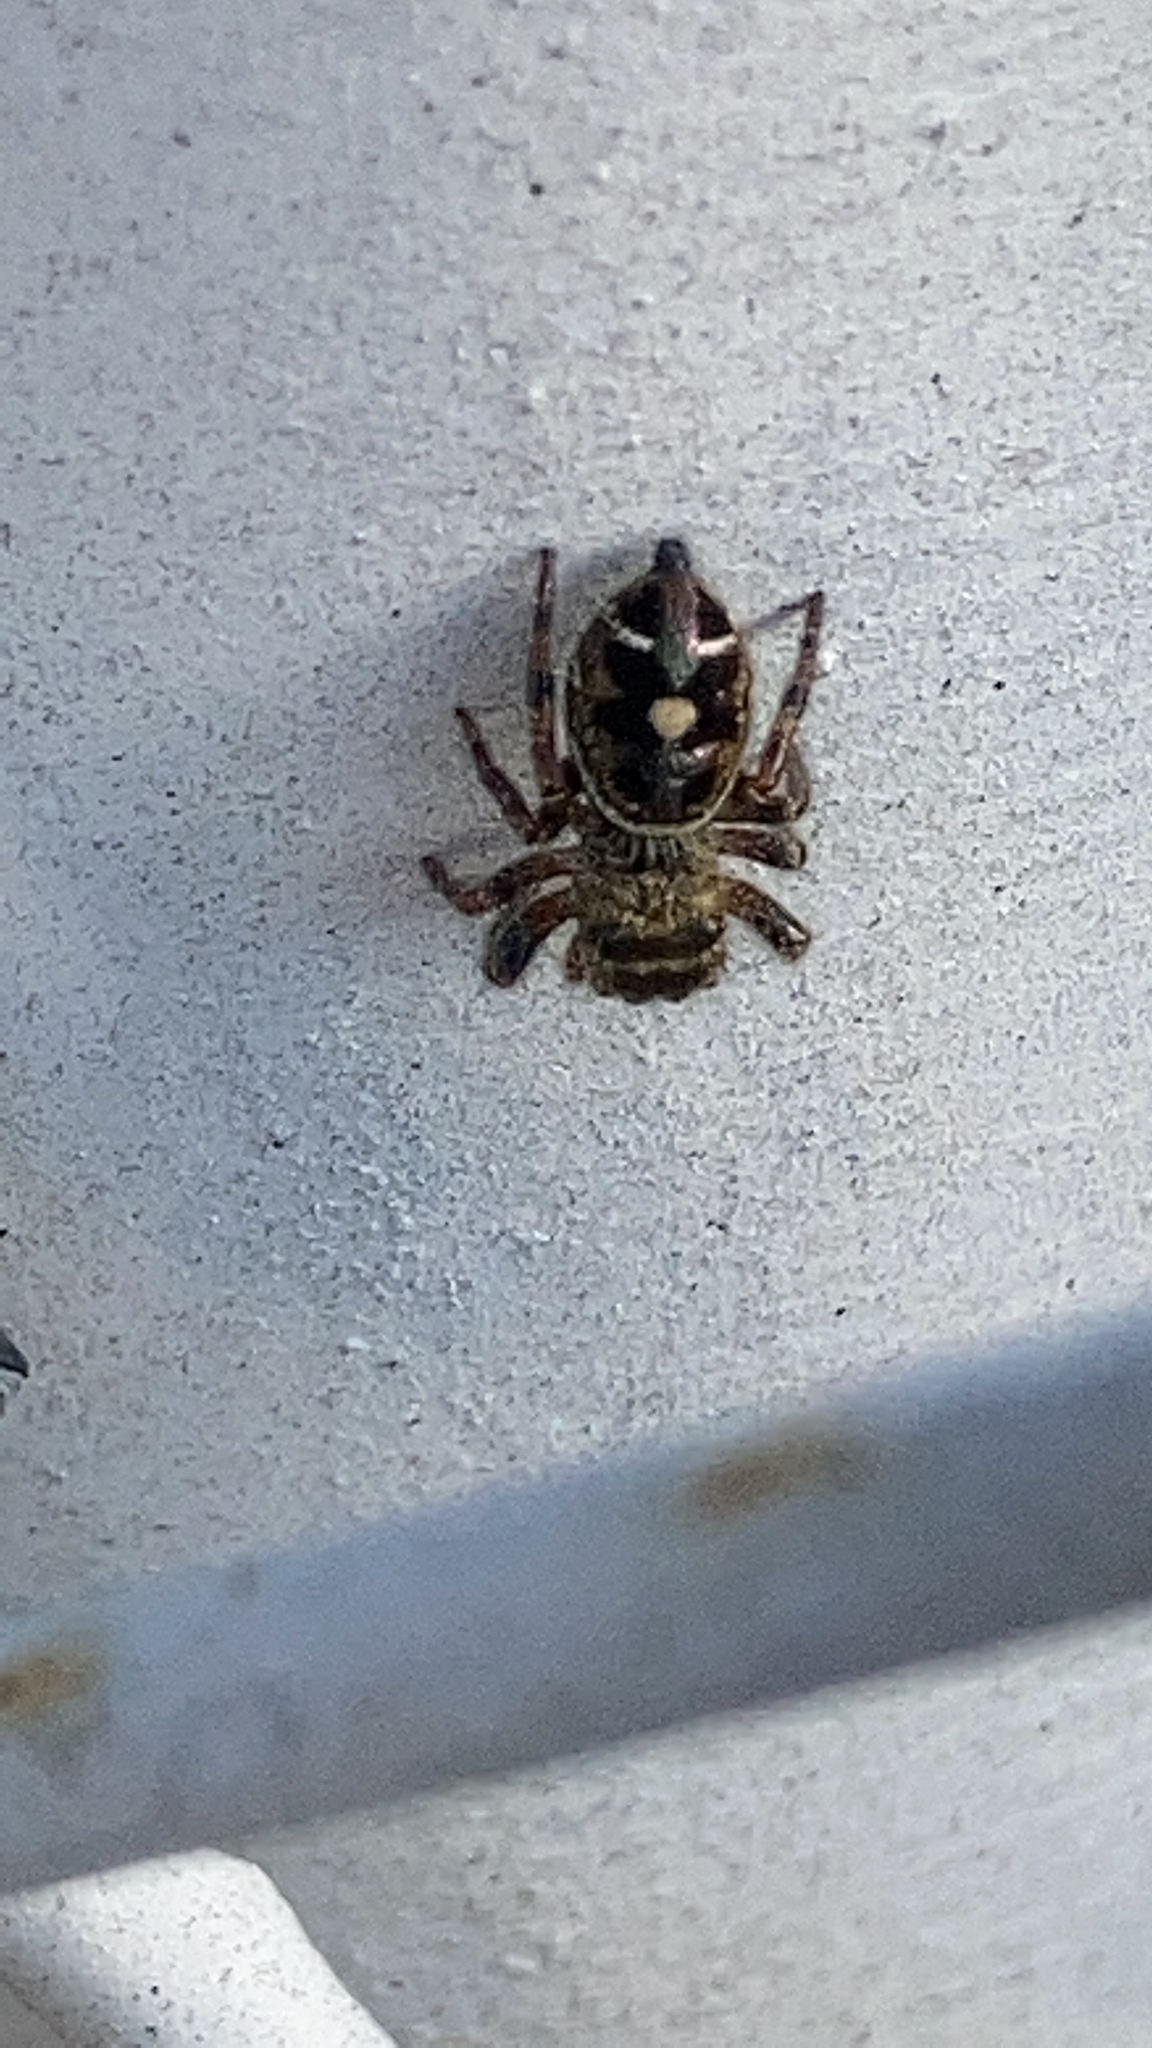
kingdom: Animalia
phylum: Arthropoda
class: Arachnida
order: Araneae
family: Salticidae
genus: Phidippus
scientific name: Phidippus audax
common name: Bold jumper
